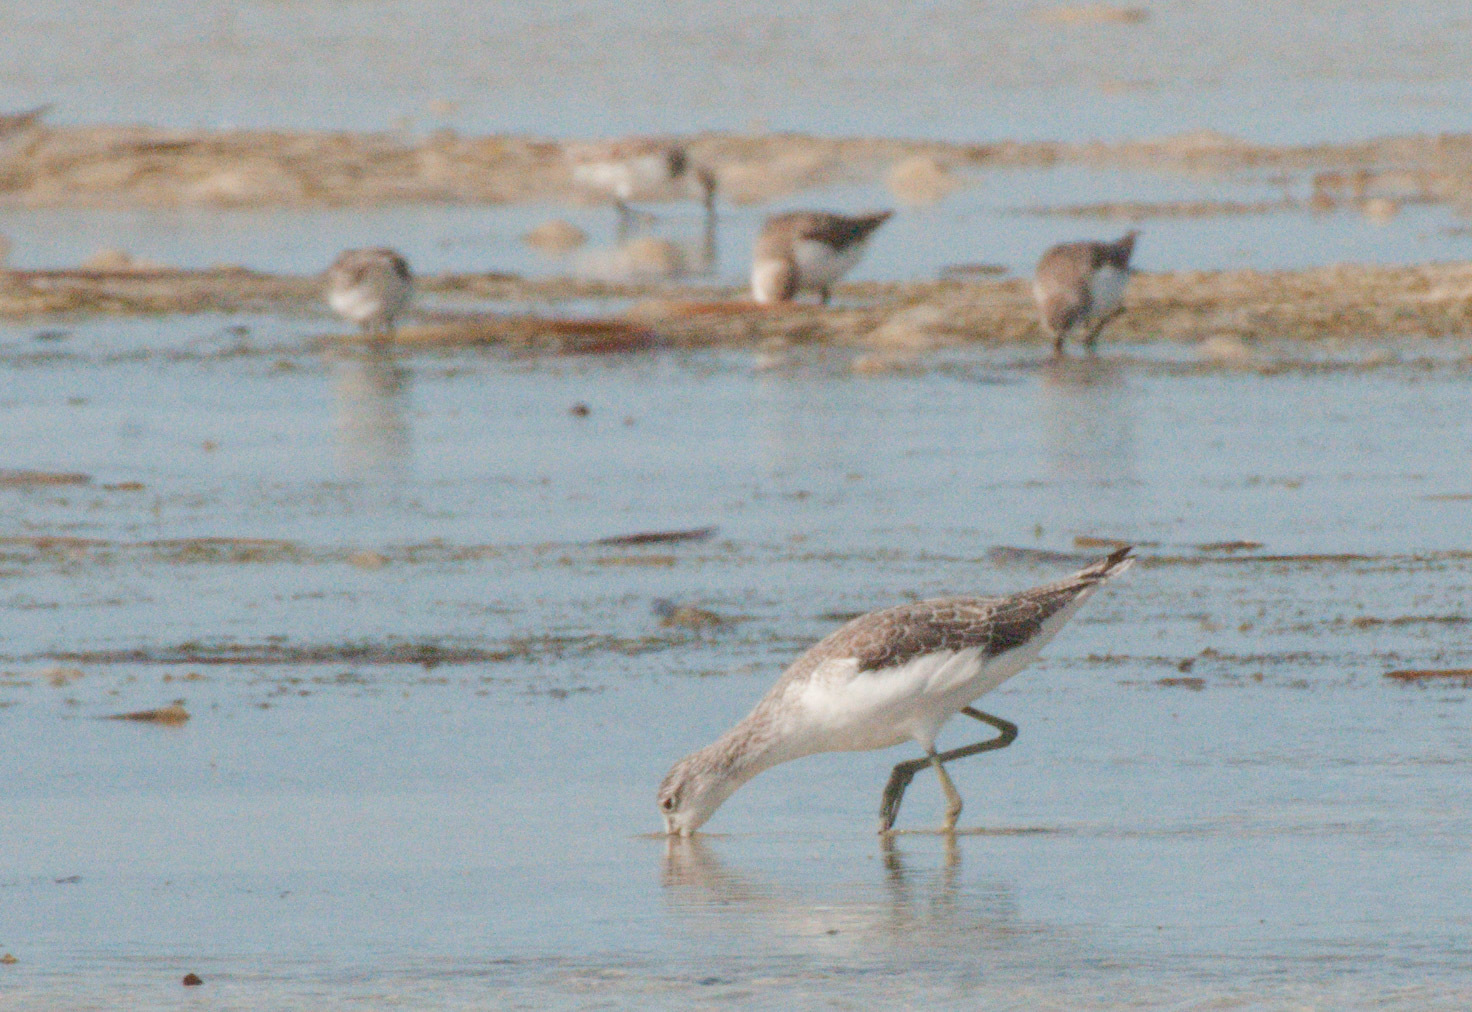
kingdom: Animalia
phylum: Chordata
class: Aves
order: Charadriiformes
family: Scolopacidae
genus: Tringa
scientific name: Tringa nebularia
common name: Common greenshank
